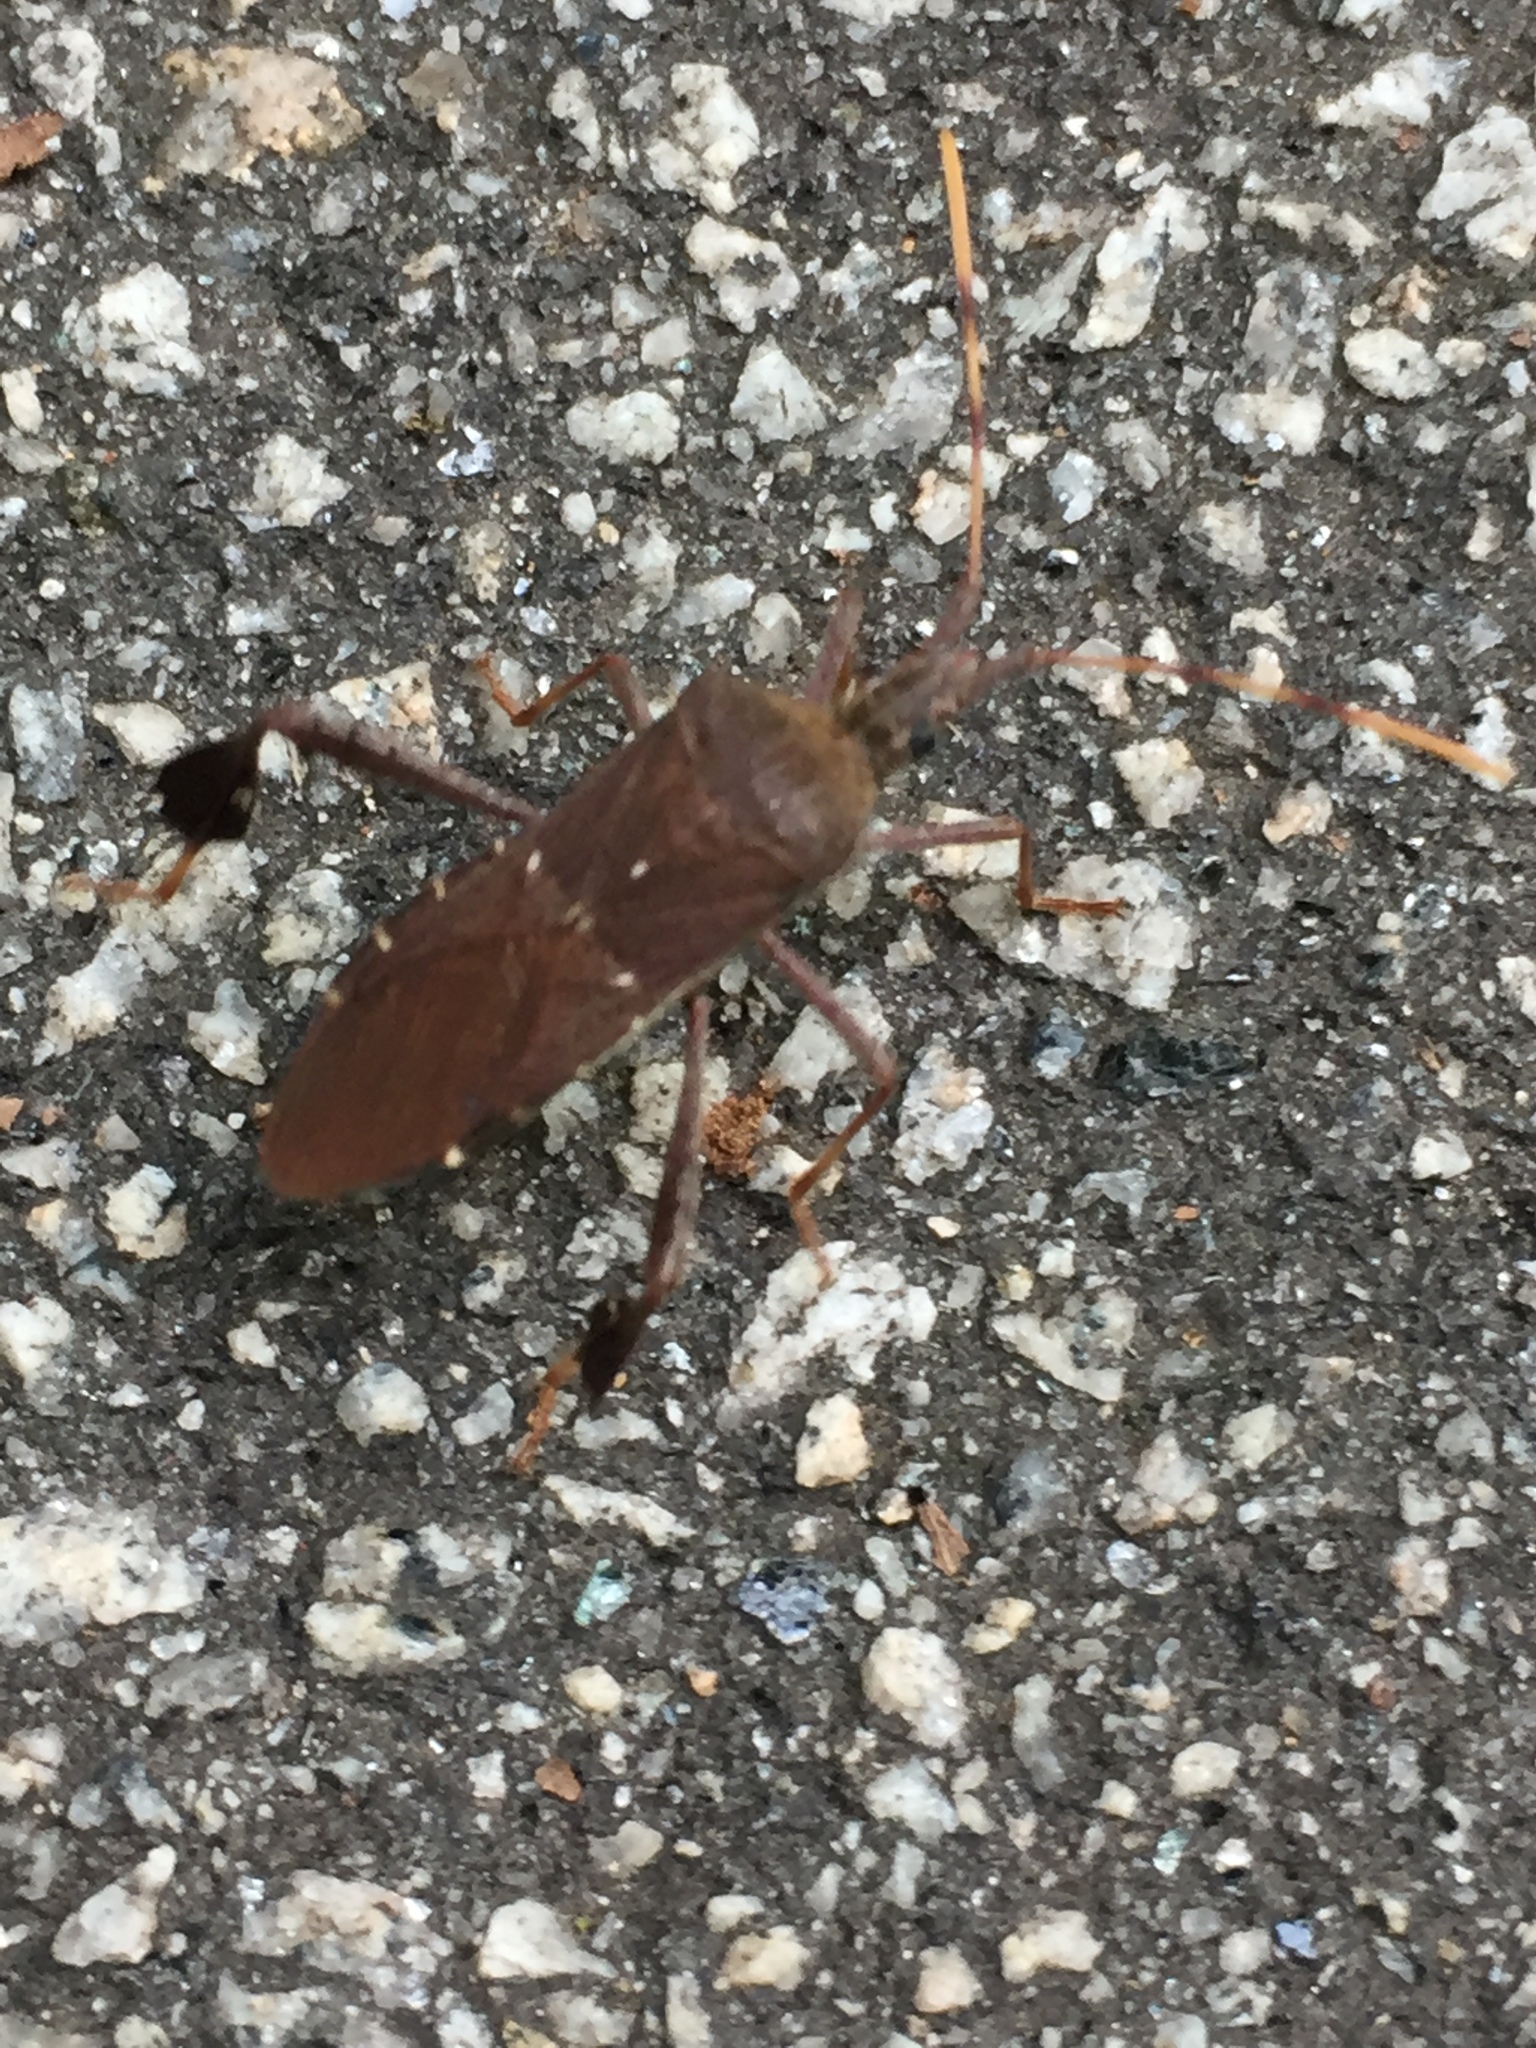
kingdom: Animalia
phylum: Arthropoda
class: Insecta
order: Hemiptera
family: Coreidae
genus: Leptoglossus
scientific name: Leptoglossus oppositus
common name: Northern leaf-footed bug
